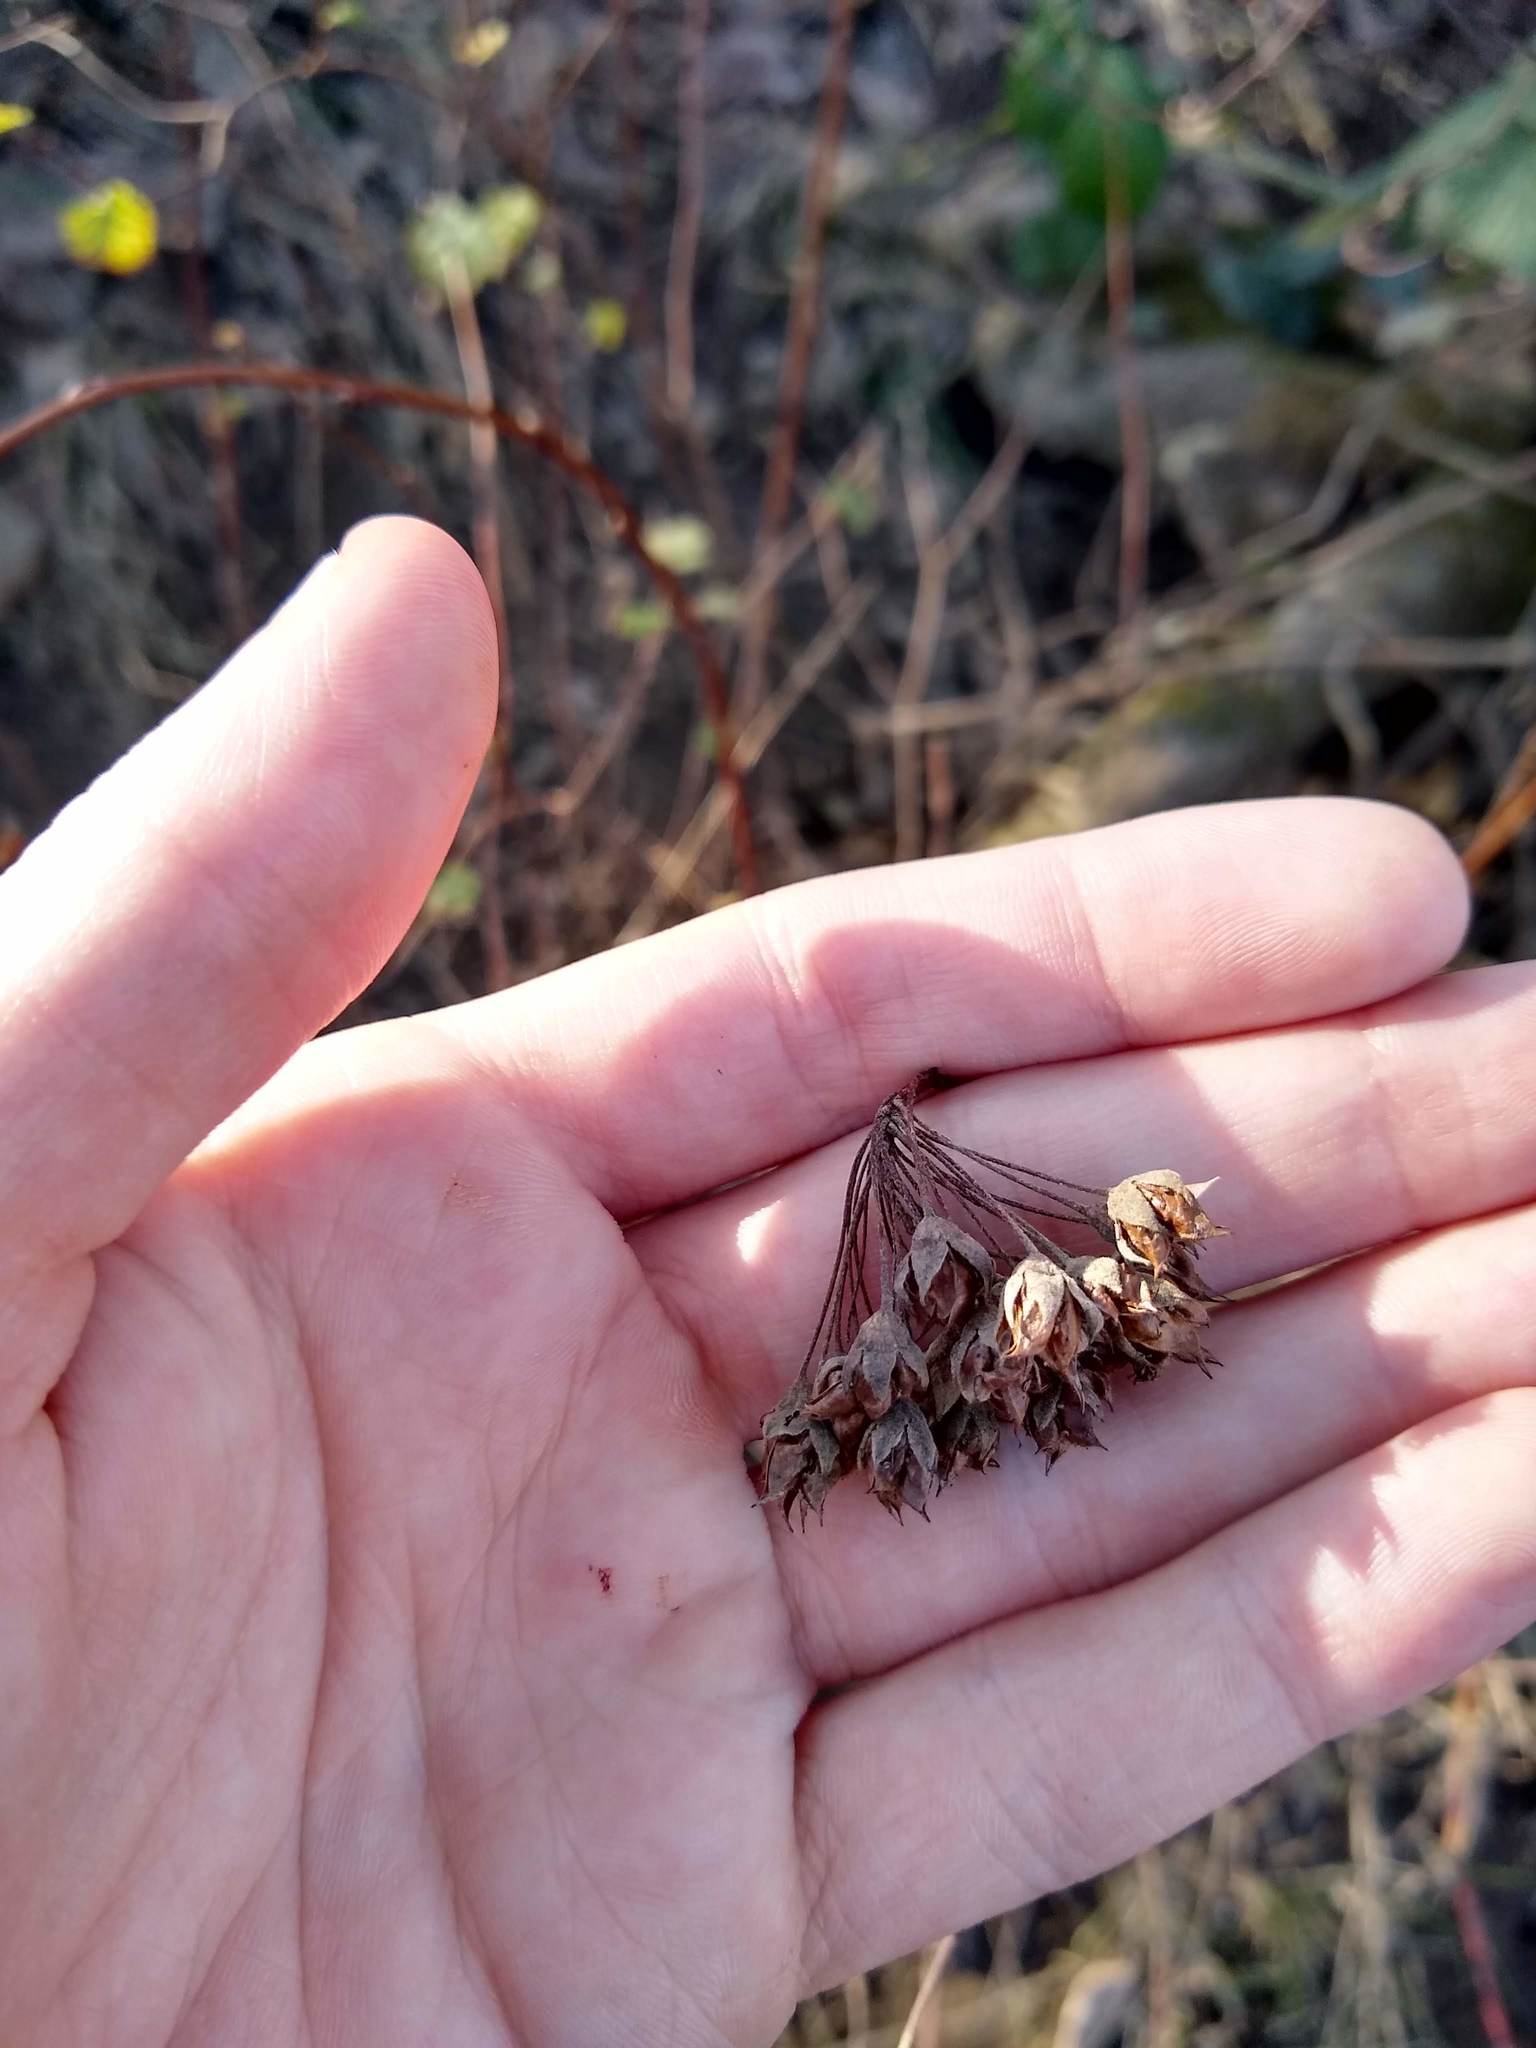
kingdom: Plantae
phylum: Tracheophyta
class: Magnoliopsida
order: Rosales
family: Rosaceae
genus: Physocarpus
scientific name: Physocarpus capitatus
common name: Pacific ninebark
